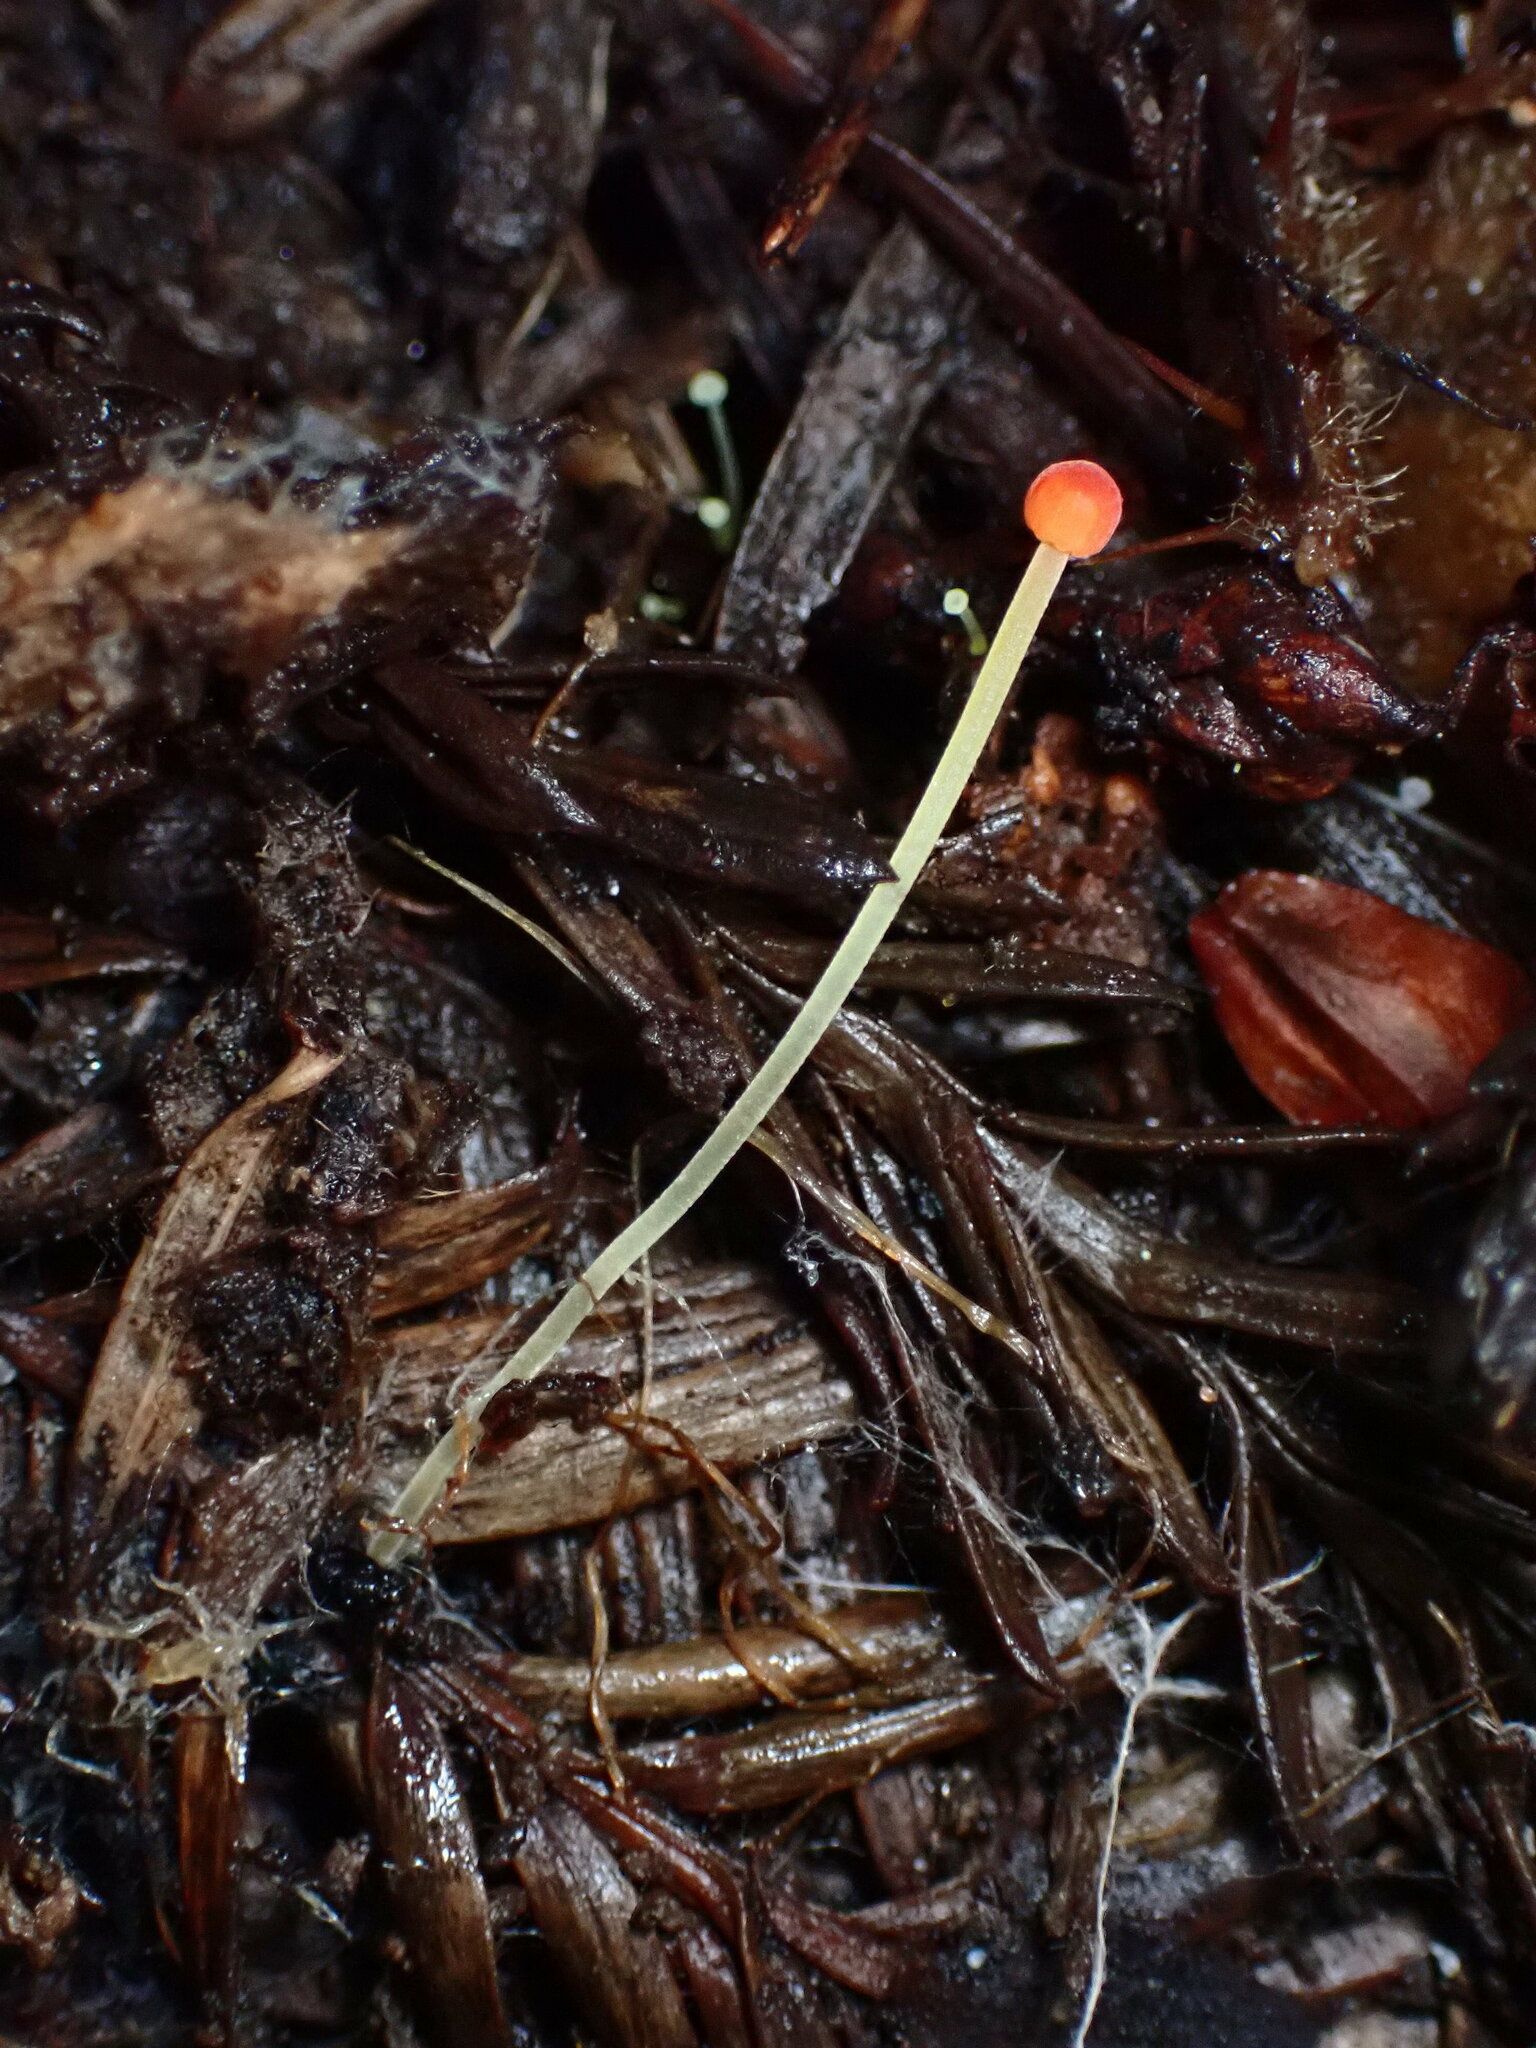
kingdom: Fungi
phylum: Basidiomycota
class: Agaricomycetes
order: Agaricales
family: Mycenaceae
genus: Mycena
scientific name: Mycena acicula
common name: Orange bonnet
